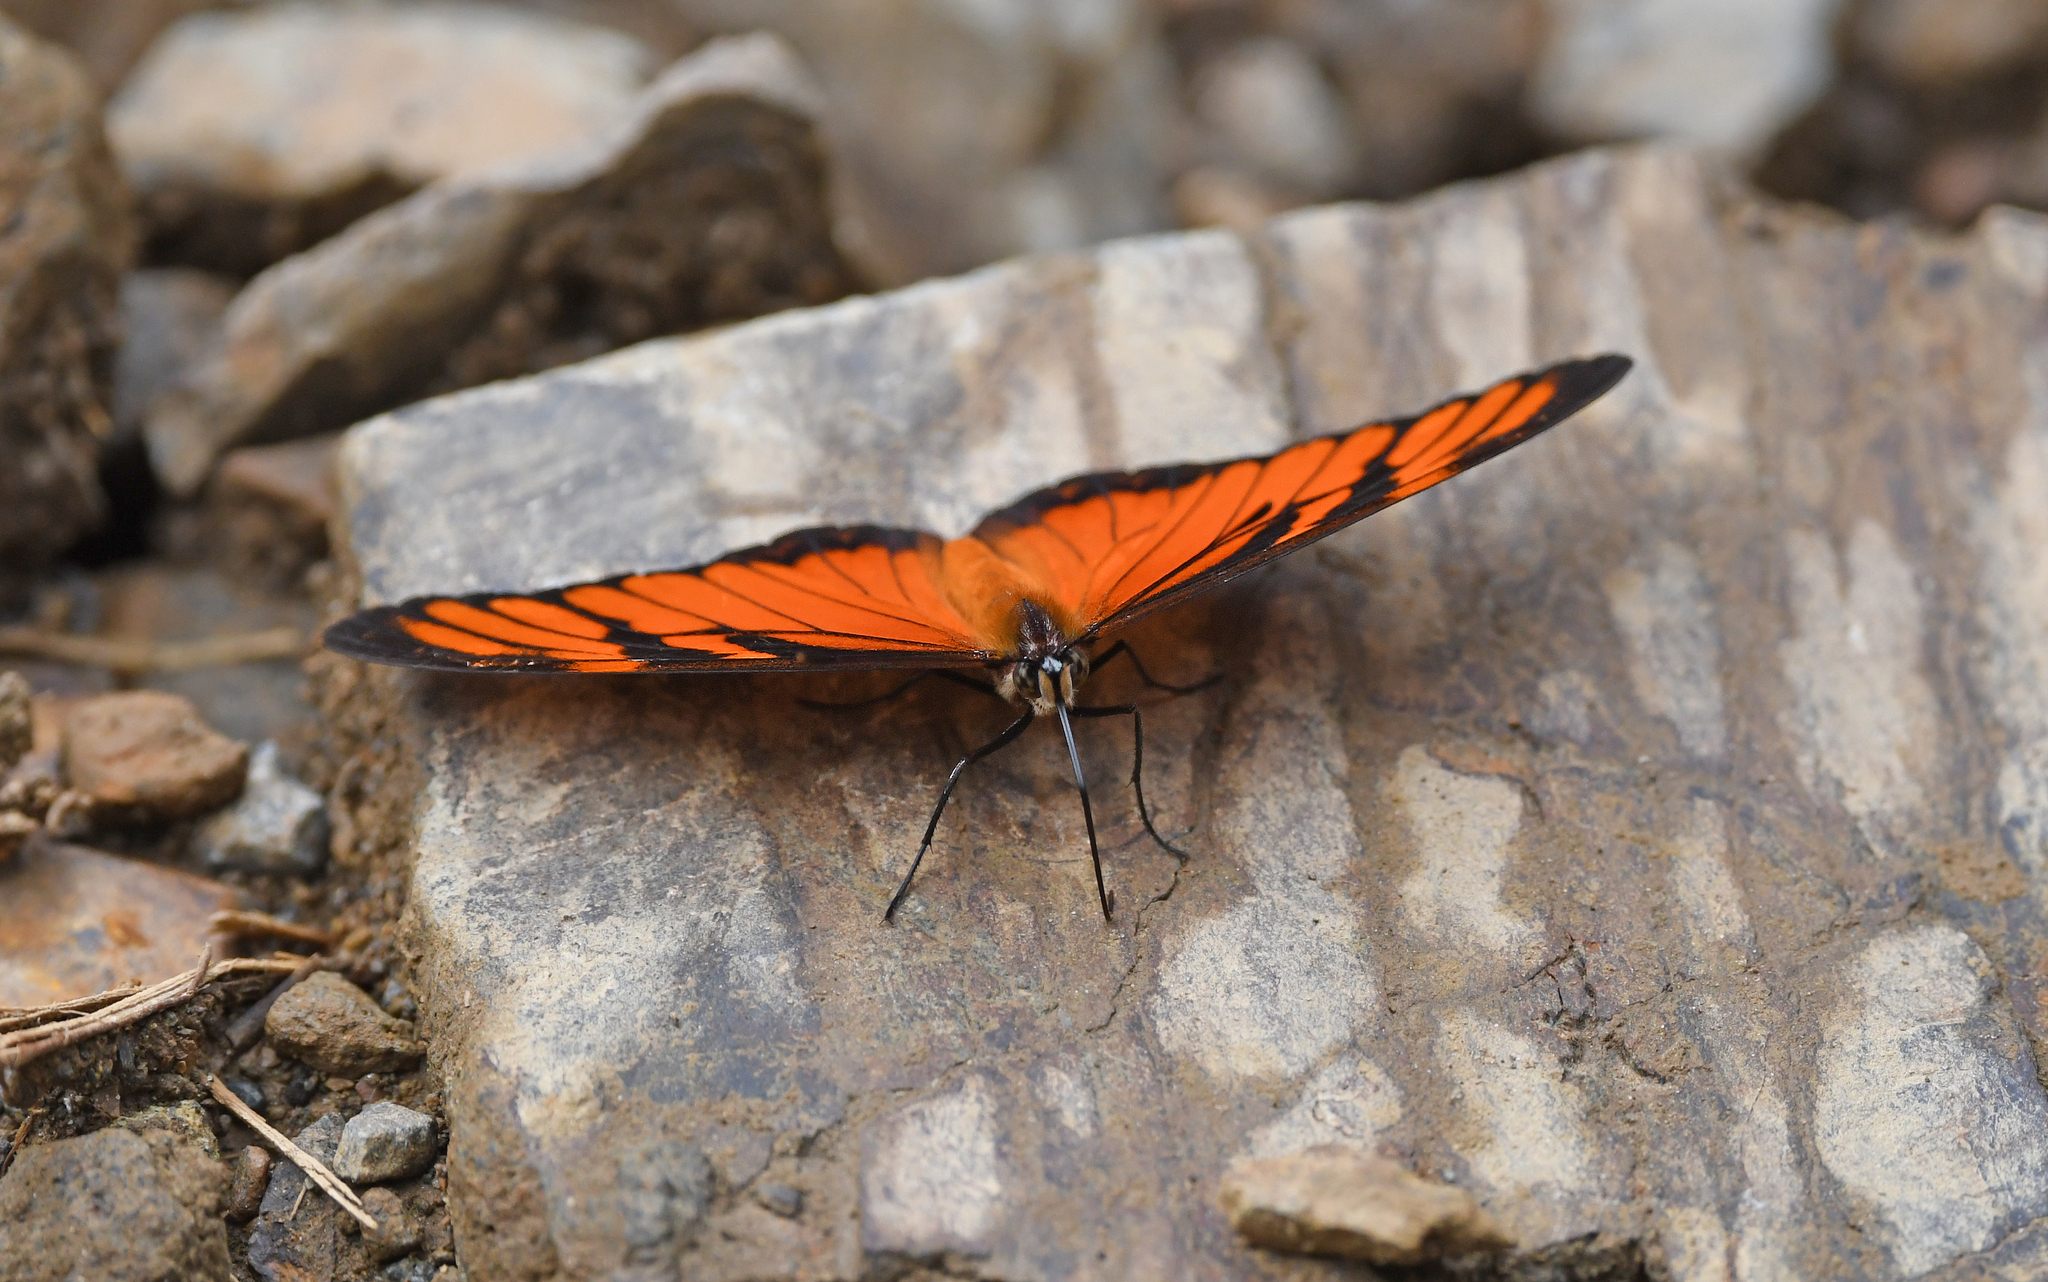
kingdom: Animalia
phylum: Arthropoda
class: Insecta
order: Lepidoptera
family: Nymphalidae
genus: Dione
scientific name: Dione juno
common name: Juno silverspot
